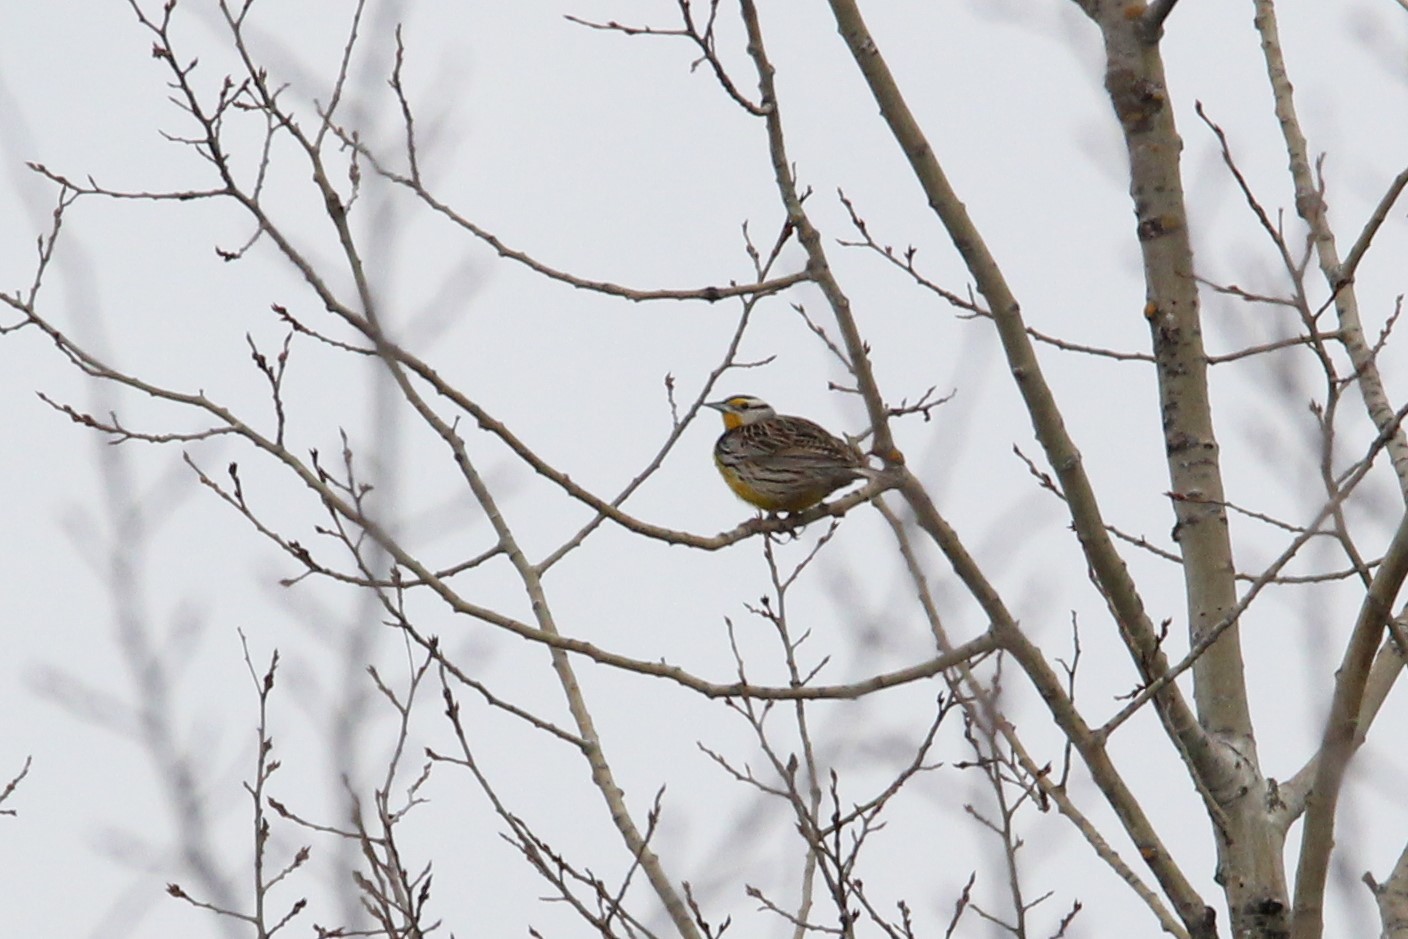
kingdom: Animalia
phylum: Chordata
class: Aves
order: Passeriformes
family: Icteridae
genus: Sturnella
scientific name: Sturnella magna
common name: Eastern meadowlark
